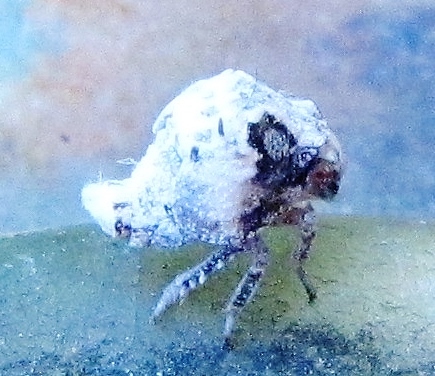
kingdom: Animalia
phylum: Arthropoda
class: Insecta
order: Hemiptera
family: Acanaloniidae
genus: Acanalonia
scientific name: Acanalonia servillei
